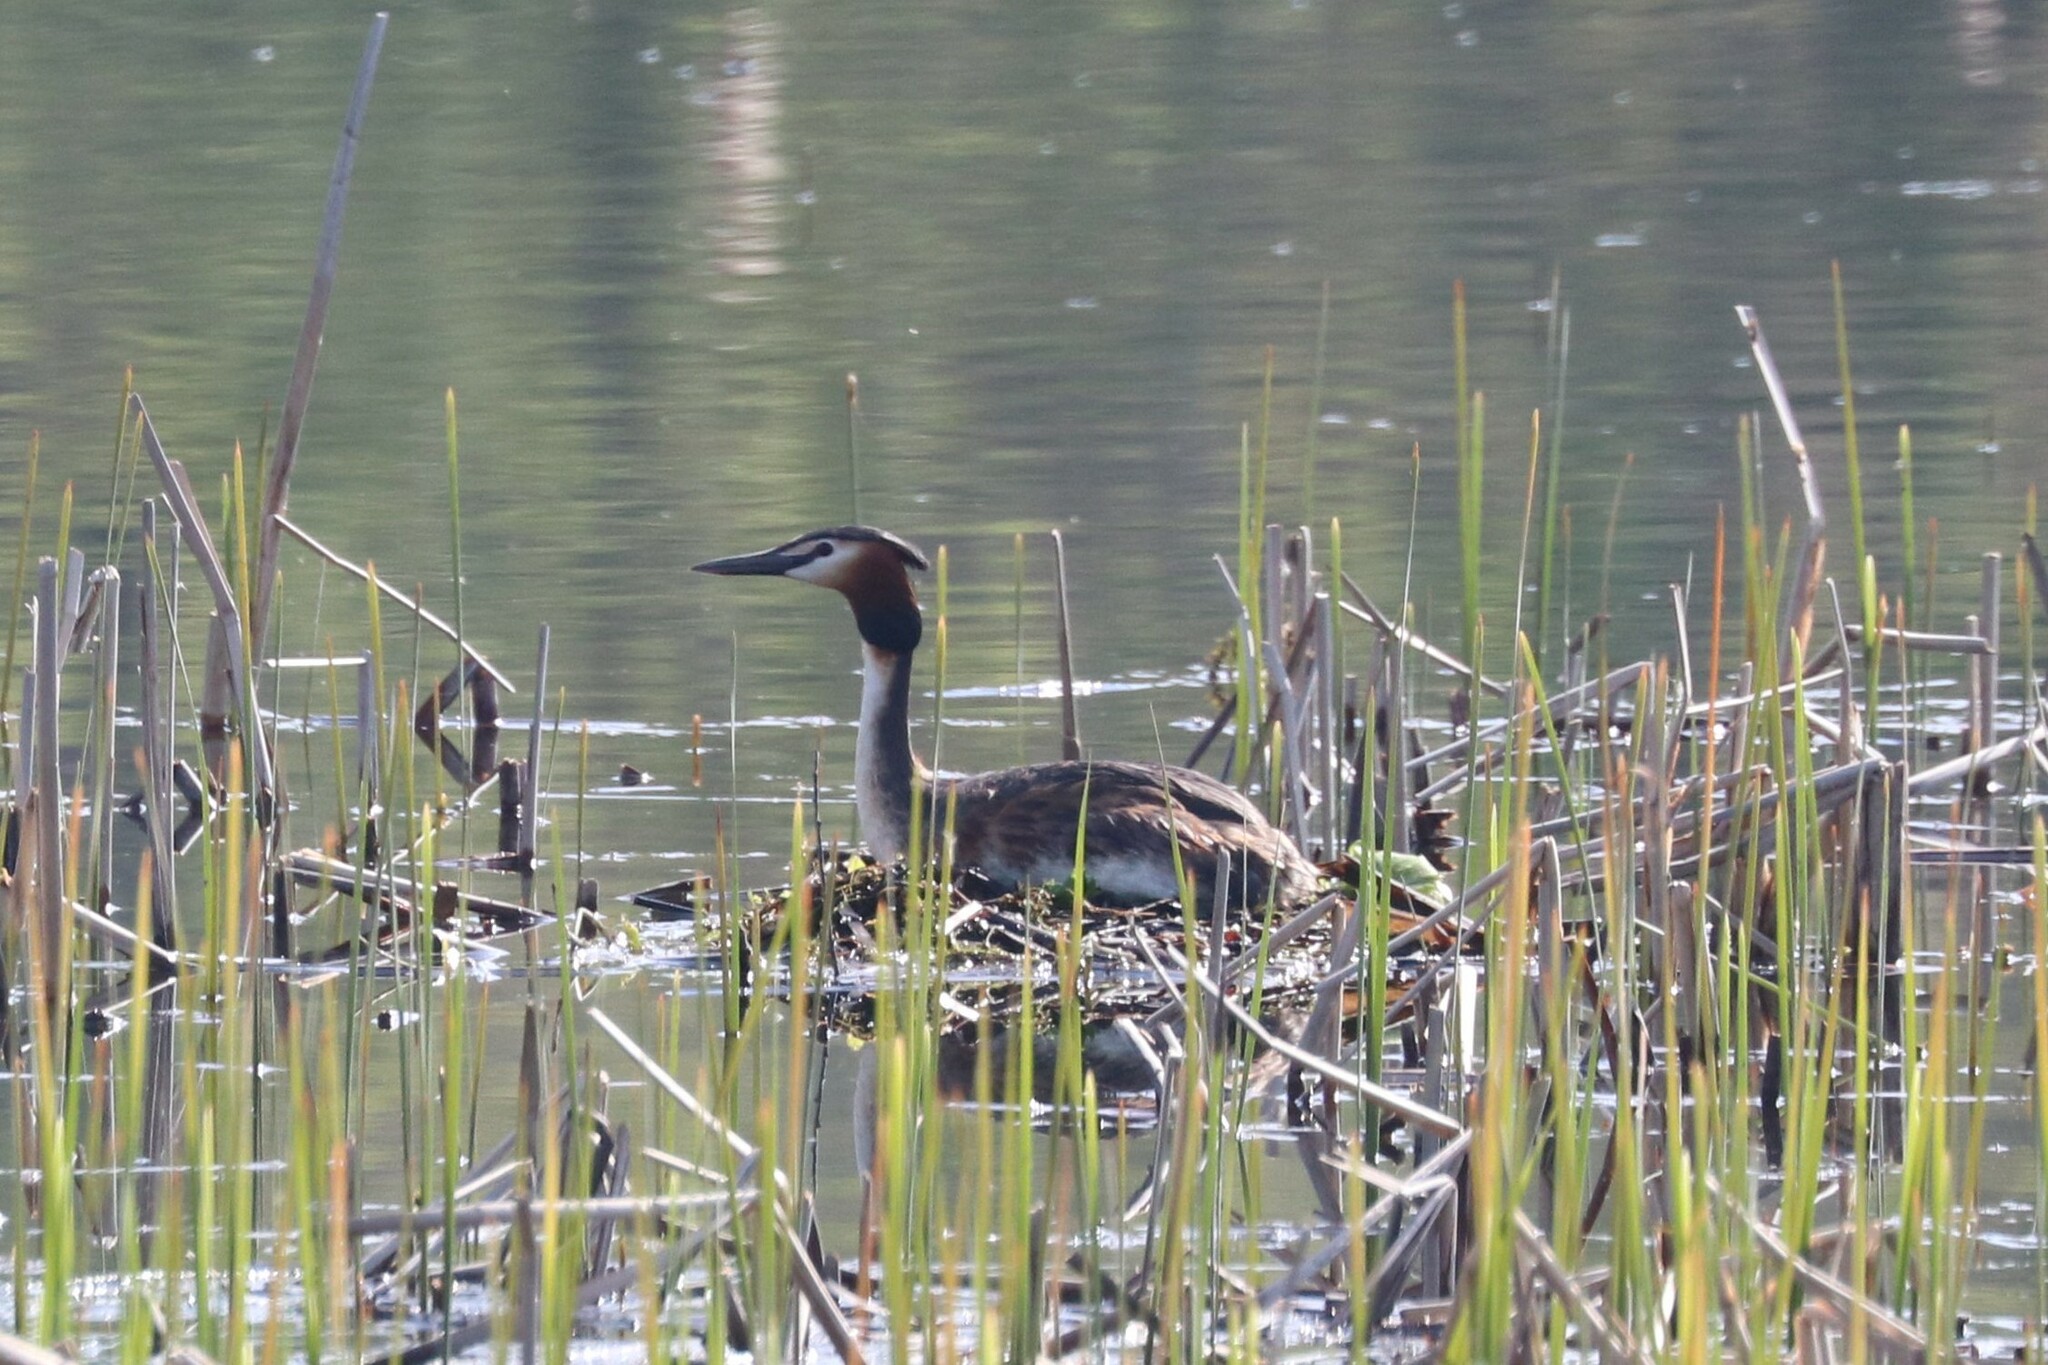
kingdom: Animalia
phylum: Chordata
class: Aves
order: Podicipediformes
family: Podicipedidae
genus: Podiceps
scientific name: Podiceps cristatus
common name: Great crested grebe
